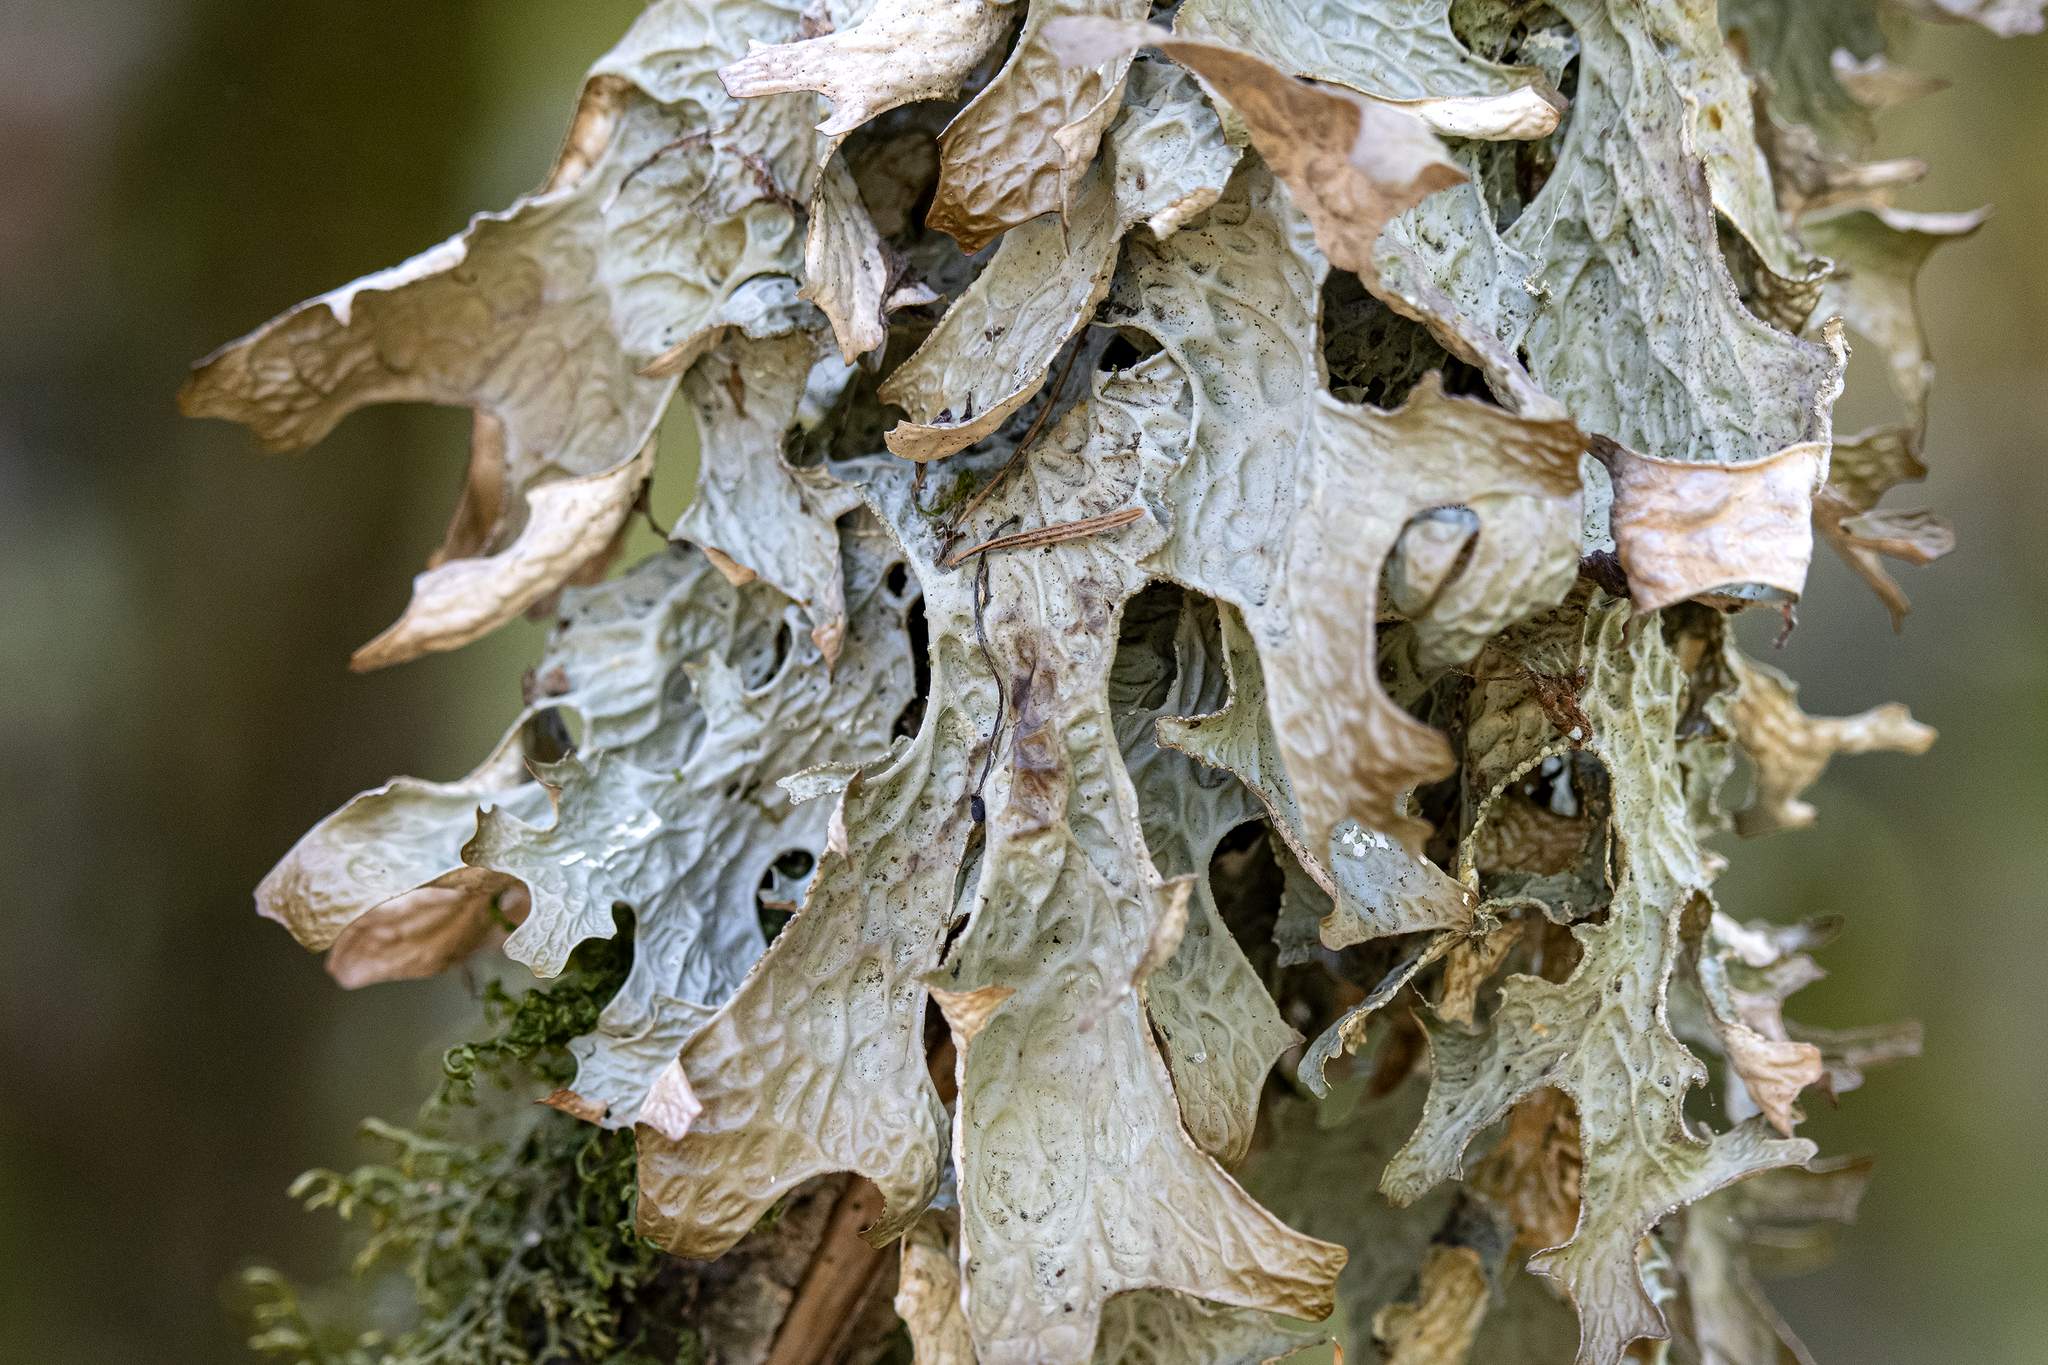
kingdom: Fungi
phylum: Ascomycota
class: Lecanoromycetes
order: Peltigerales
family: Lobariaceae
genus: Lobaria
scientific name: Lobaria pulmonaria
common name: Lungwort
